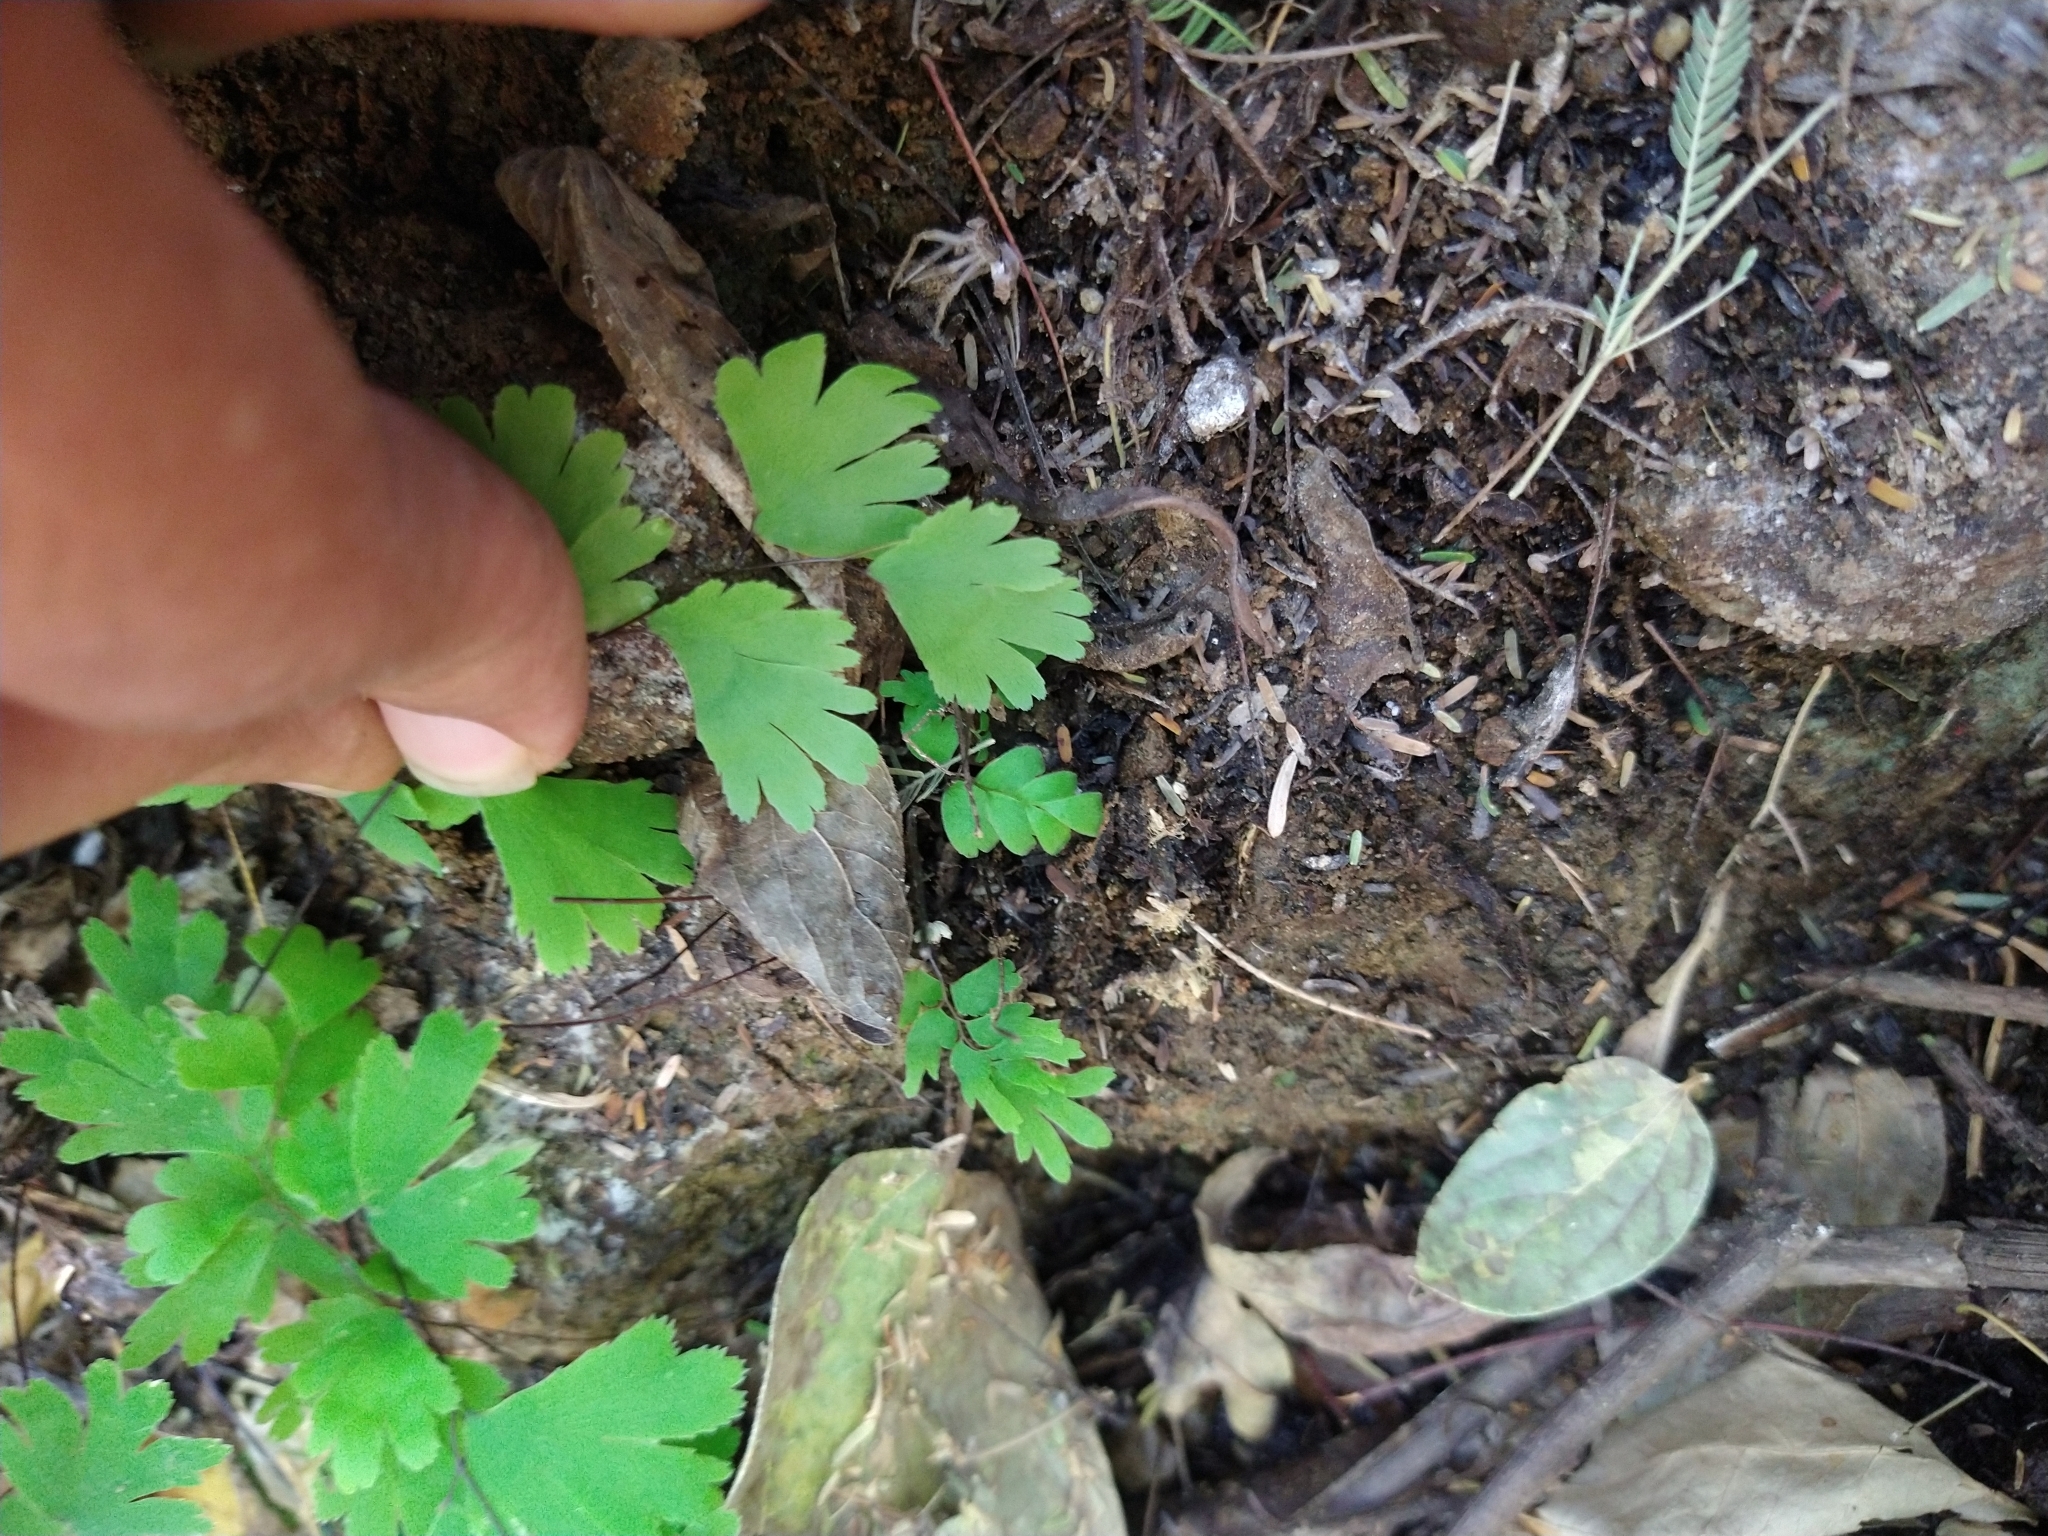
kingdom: Plantae
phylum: Tracheophyta
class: Polypodiopsida
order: Polypodiales
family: Pteridaceae
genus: Adiantum
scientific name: Adiantum capillus-veneris
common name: Maidenhair fern
